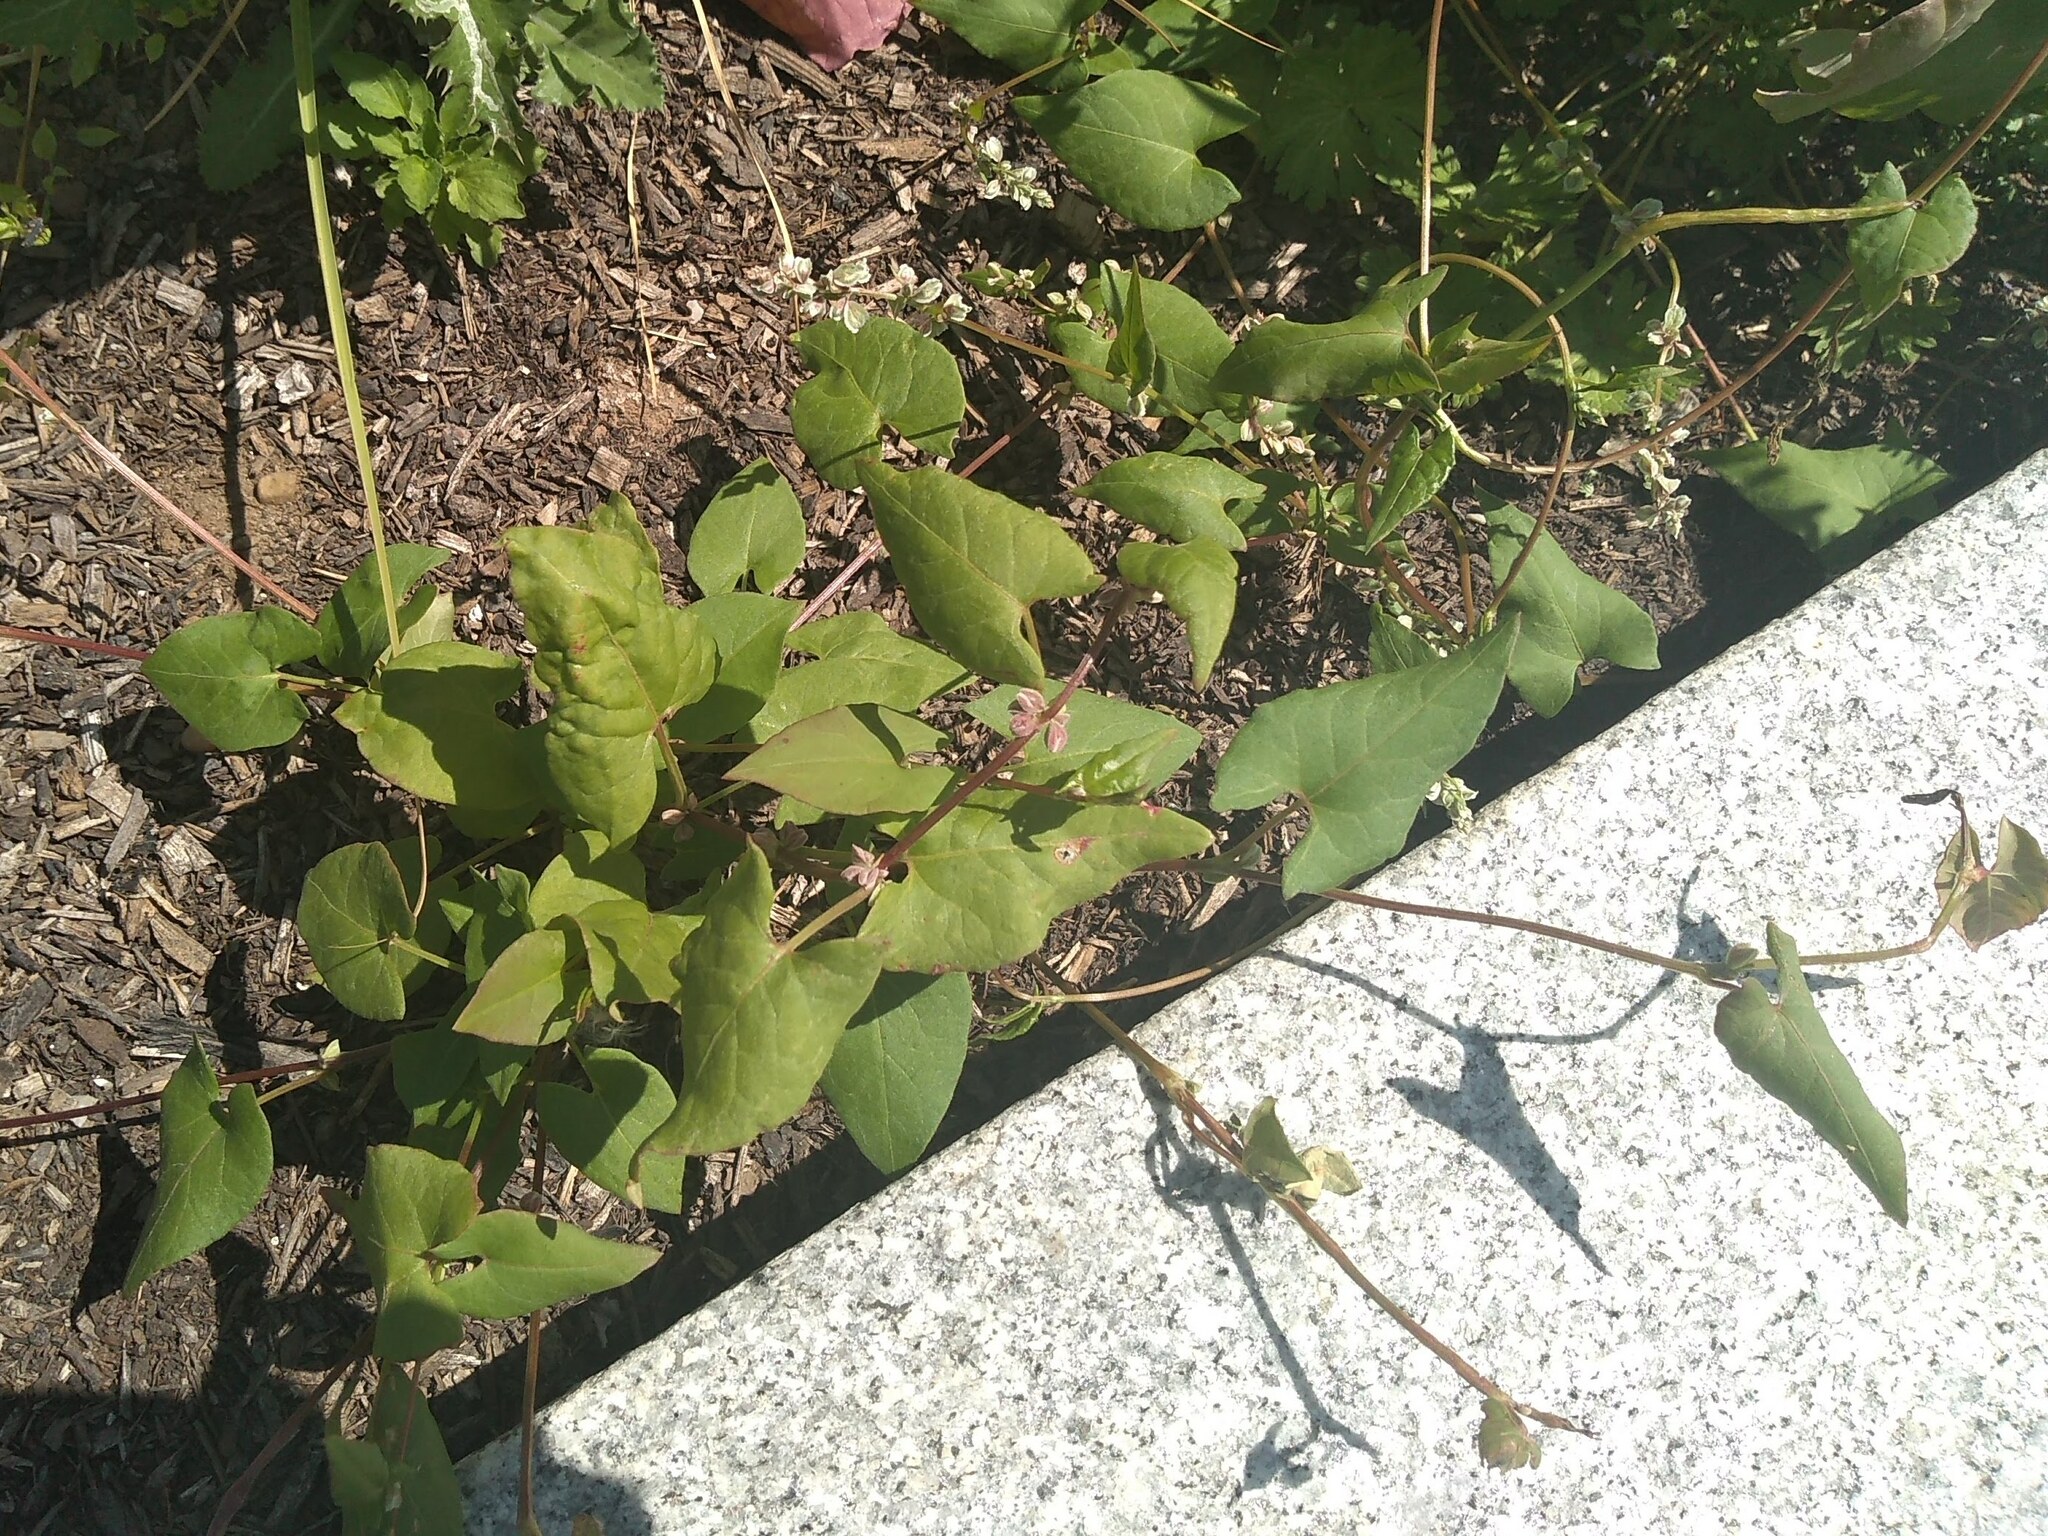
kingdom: Plantae
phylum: Tracheophyta
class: Magnoliopsida
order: Caryophyllales
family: Polygonaceae
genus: Fallopia
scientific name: Fallopia convolvulus
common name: Black bindweed
